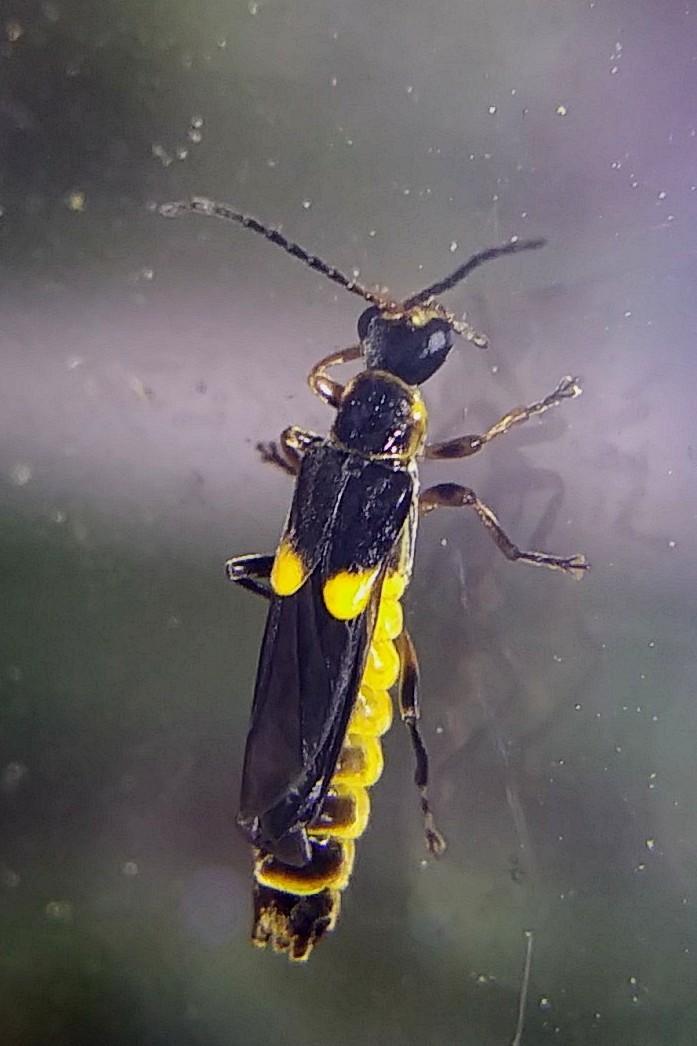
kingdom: Animalia
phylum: Arthropoda
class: Insecta
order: Coleoptera
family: Cantharidae
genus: Trypherus
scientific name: Trypherus frisoni
